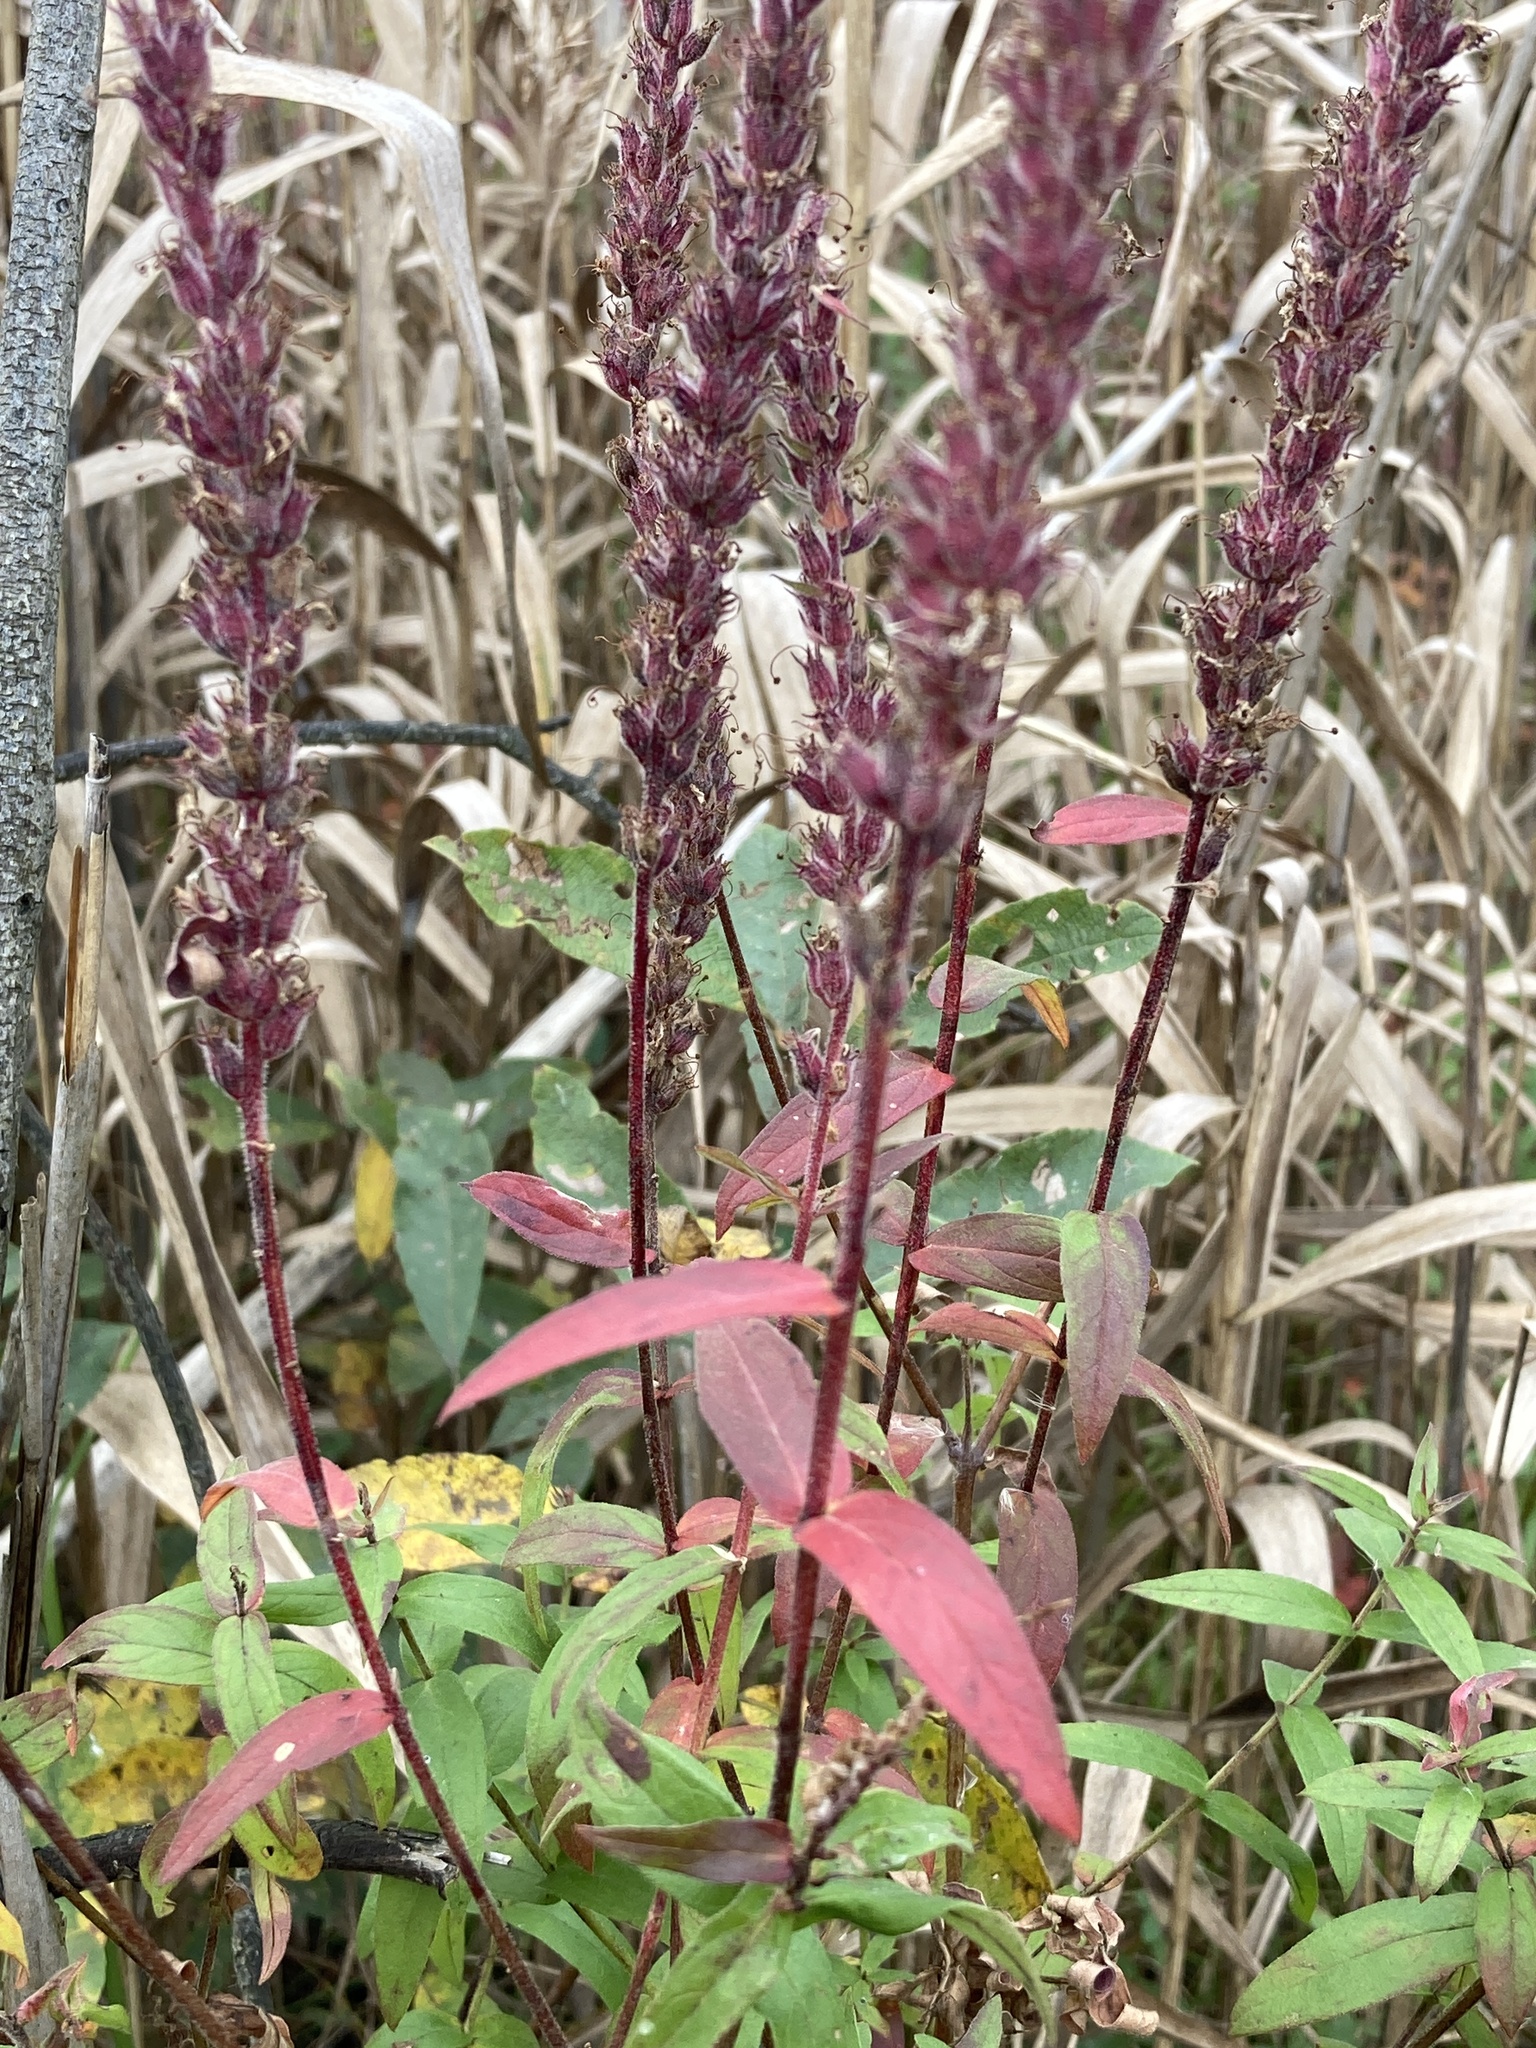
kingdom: Plantae
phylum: Tracheophyta
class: Magnoliopsida
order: Myrtales
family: Lythraceae
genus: Lythrum
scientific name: Lythrum salicaria
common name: Purple loosestrife
